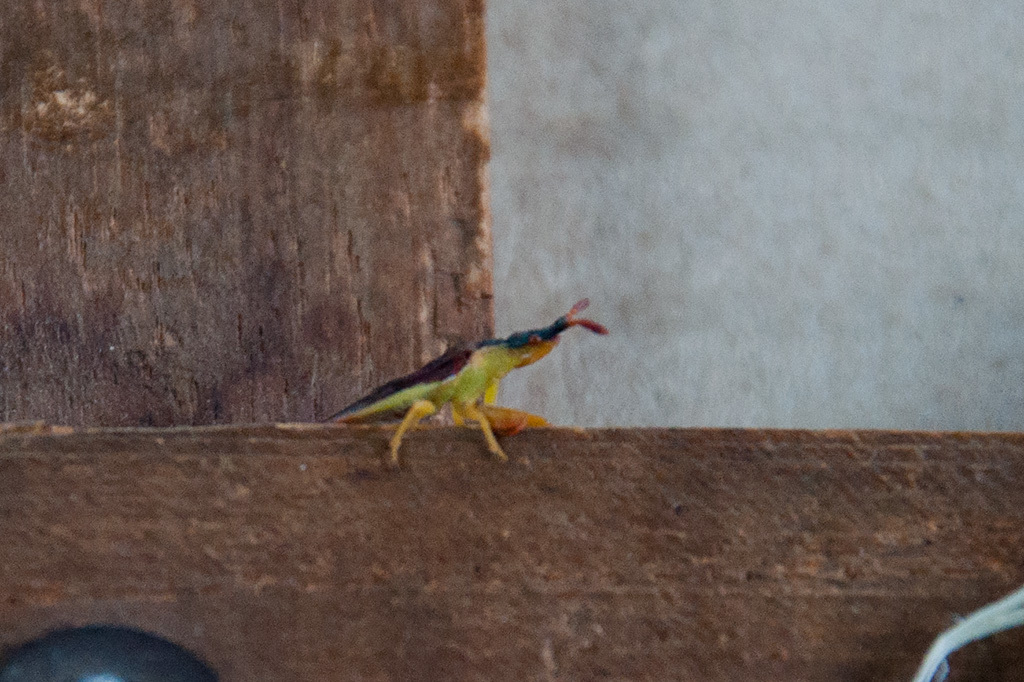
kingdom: Animalia
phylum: Arthropoda
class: Insecta
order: Hemiptera
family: Reduviidae
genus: Narina
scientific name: Narina capensis
